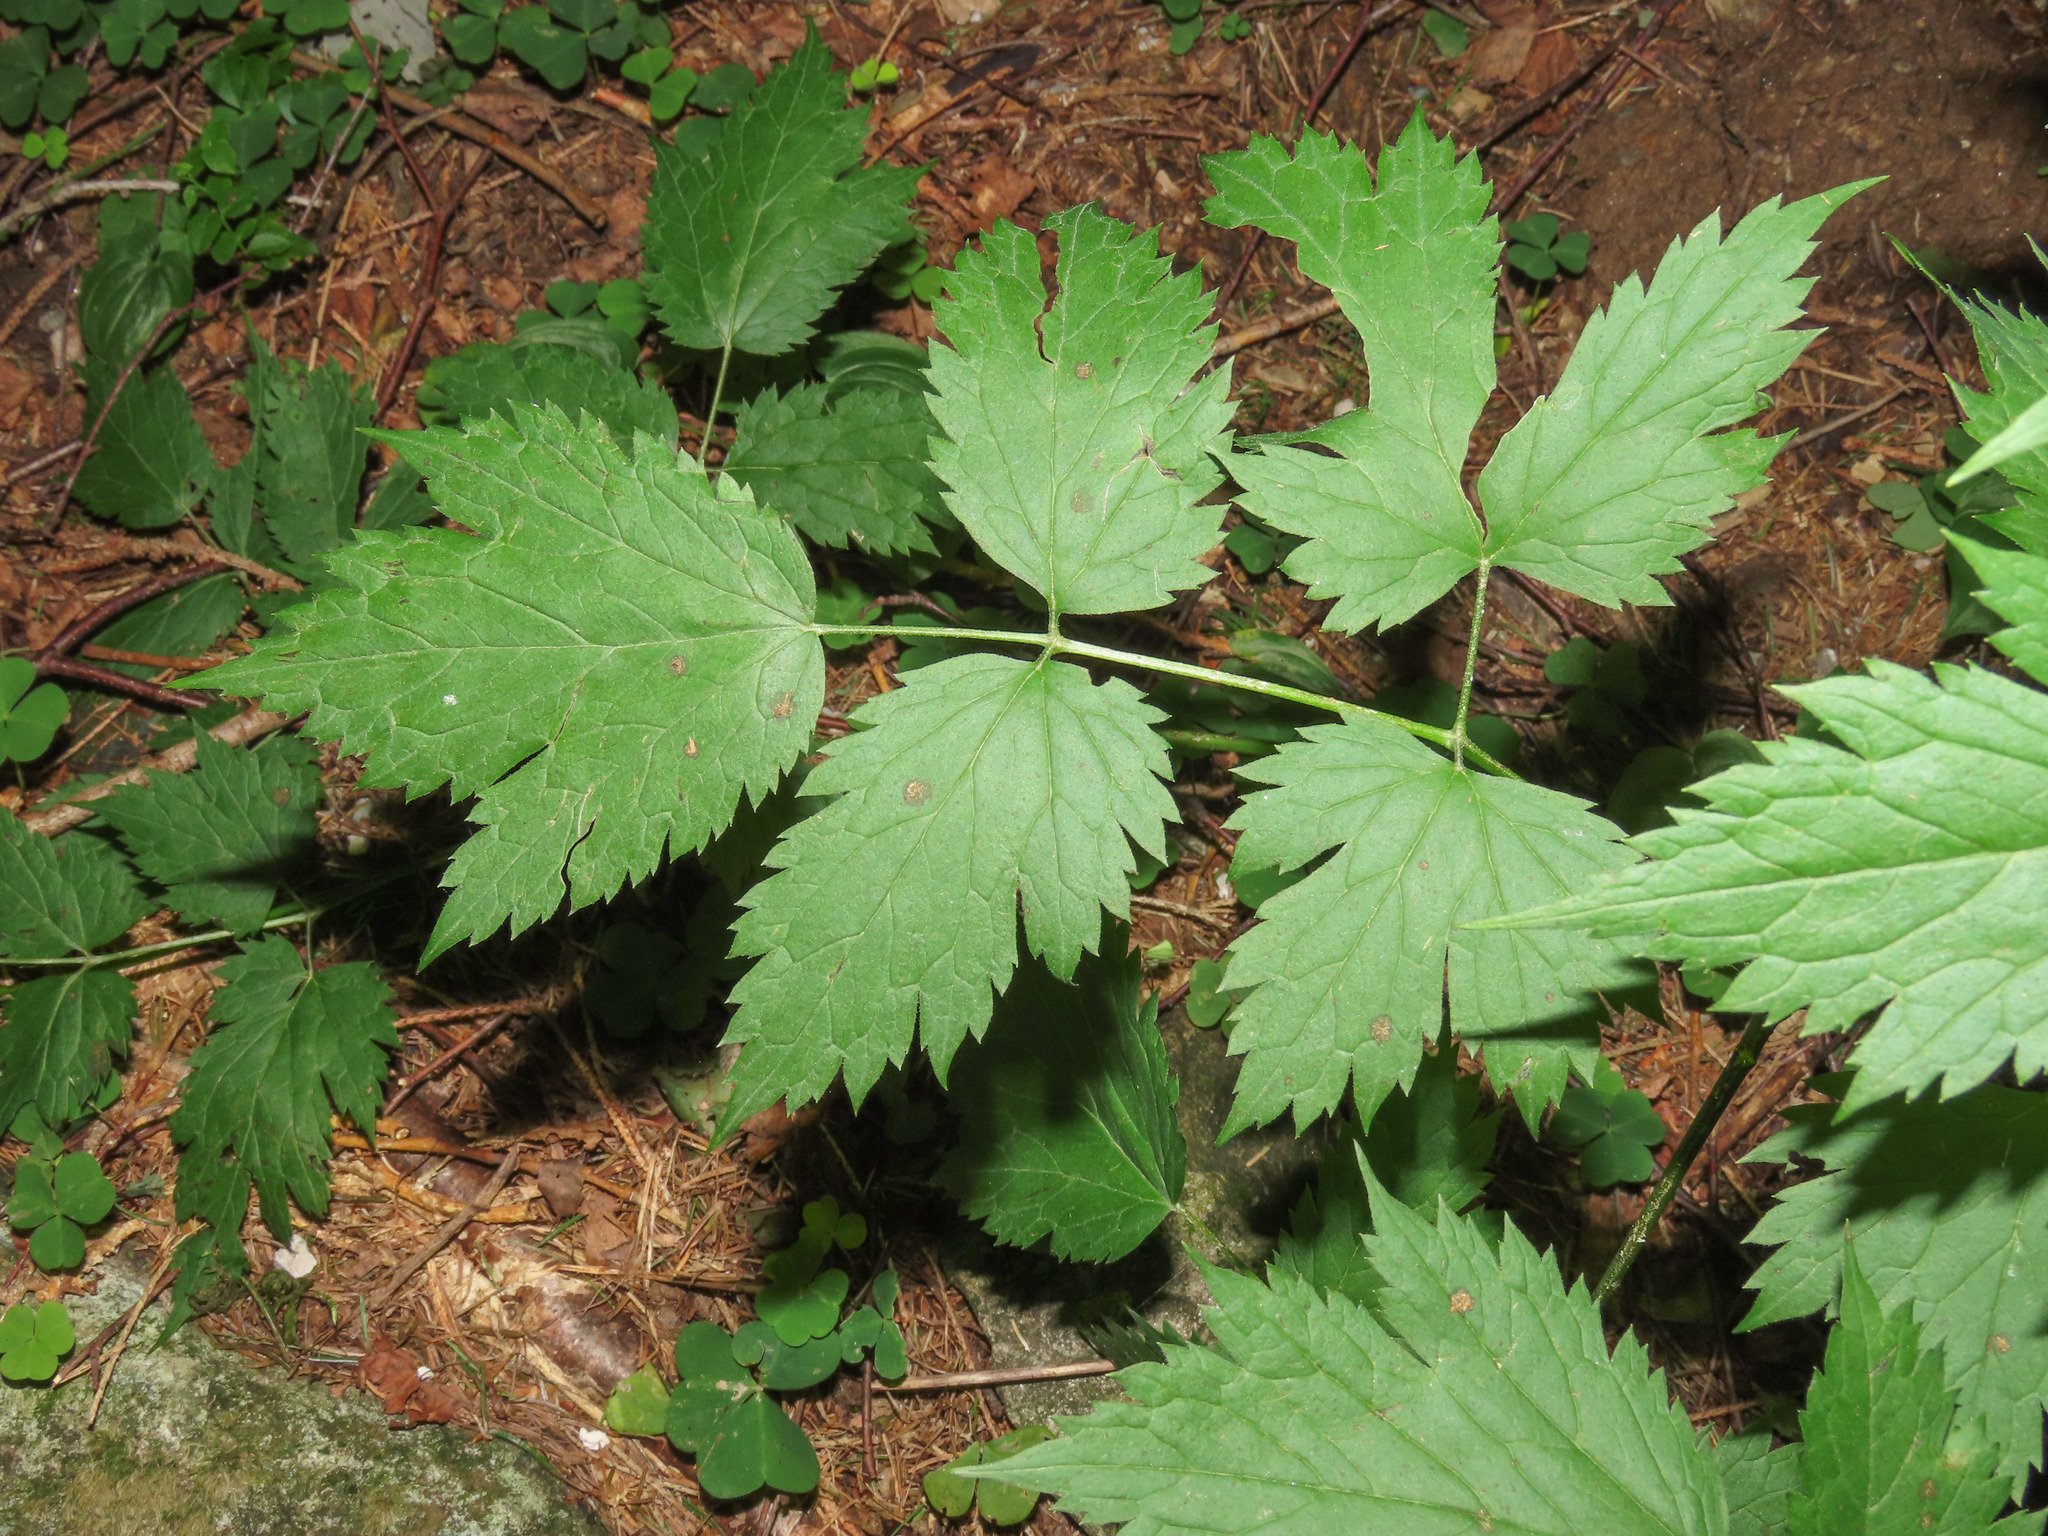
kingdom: Plantae
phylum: Tracheophyta
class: Magnoliopsida
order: Ranunculales
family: Ranunculaceae
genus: Actaea
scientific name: Actaea spicata
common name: Baneberry
